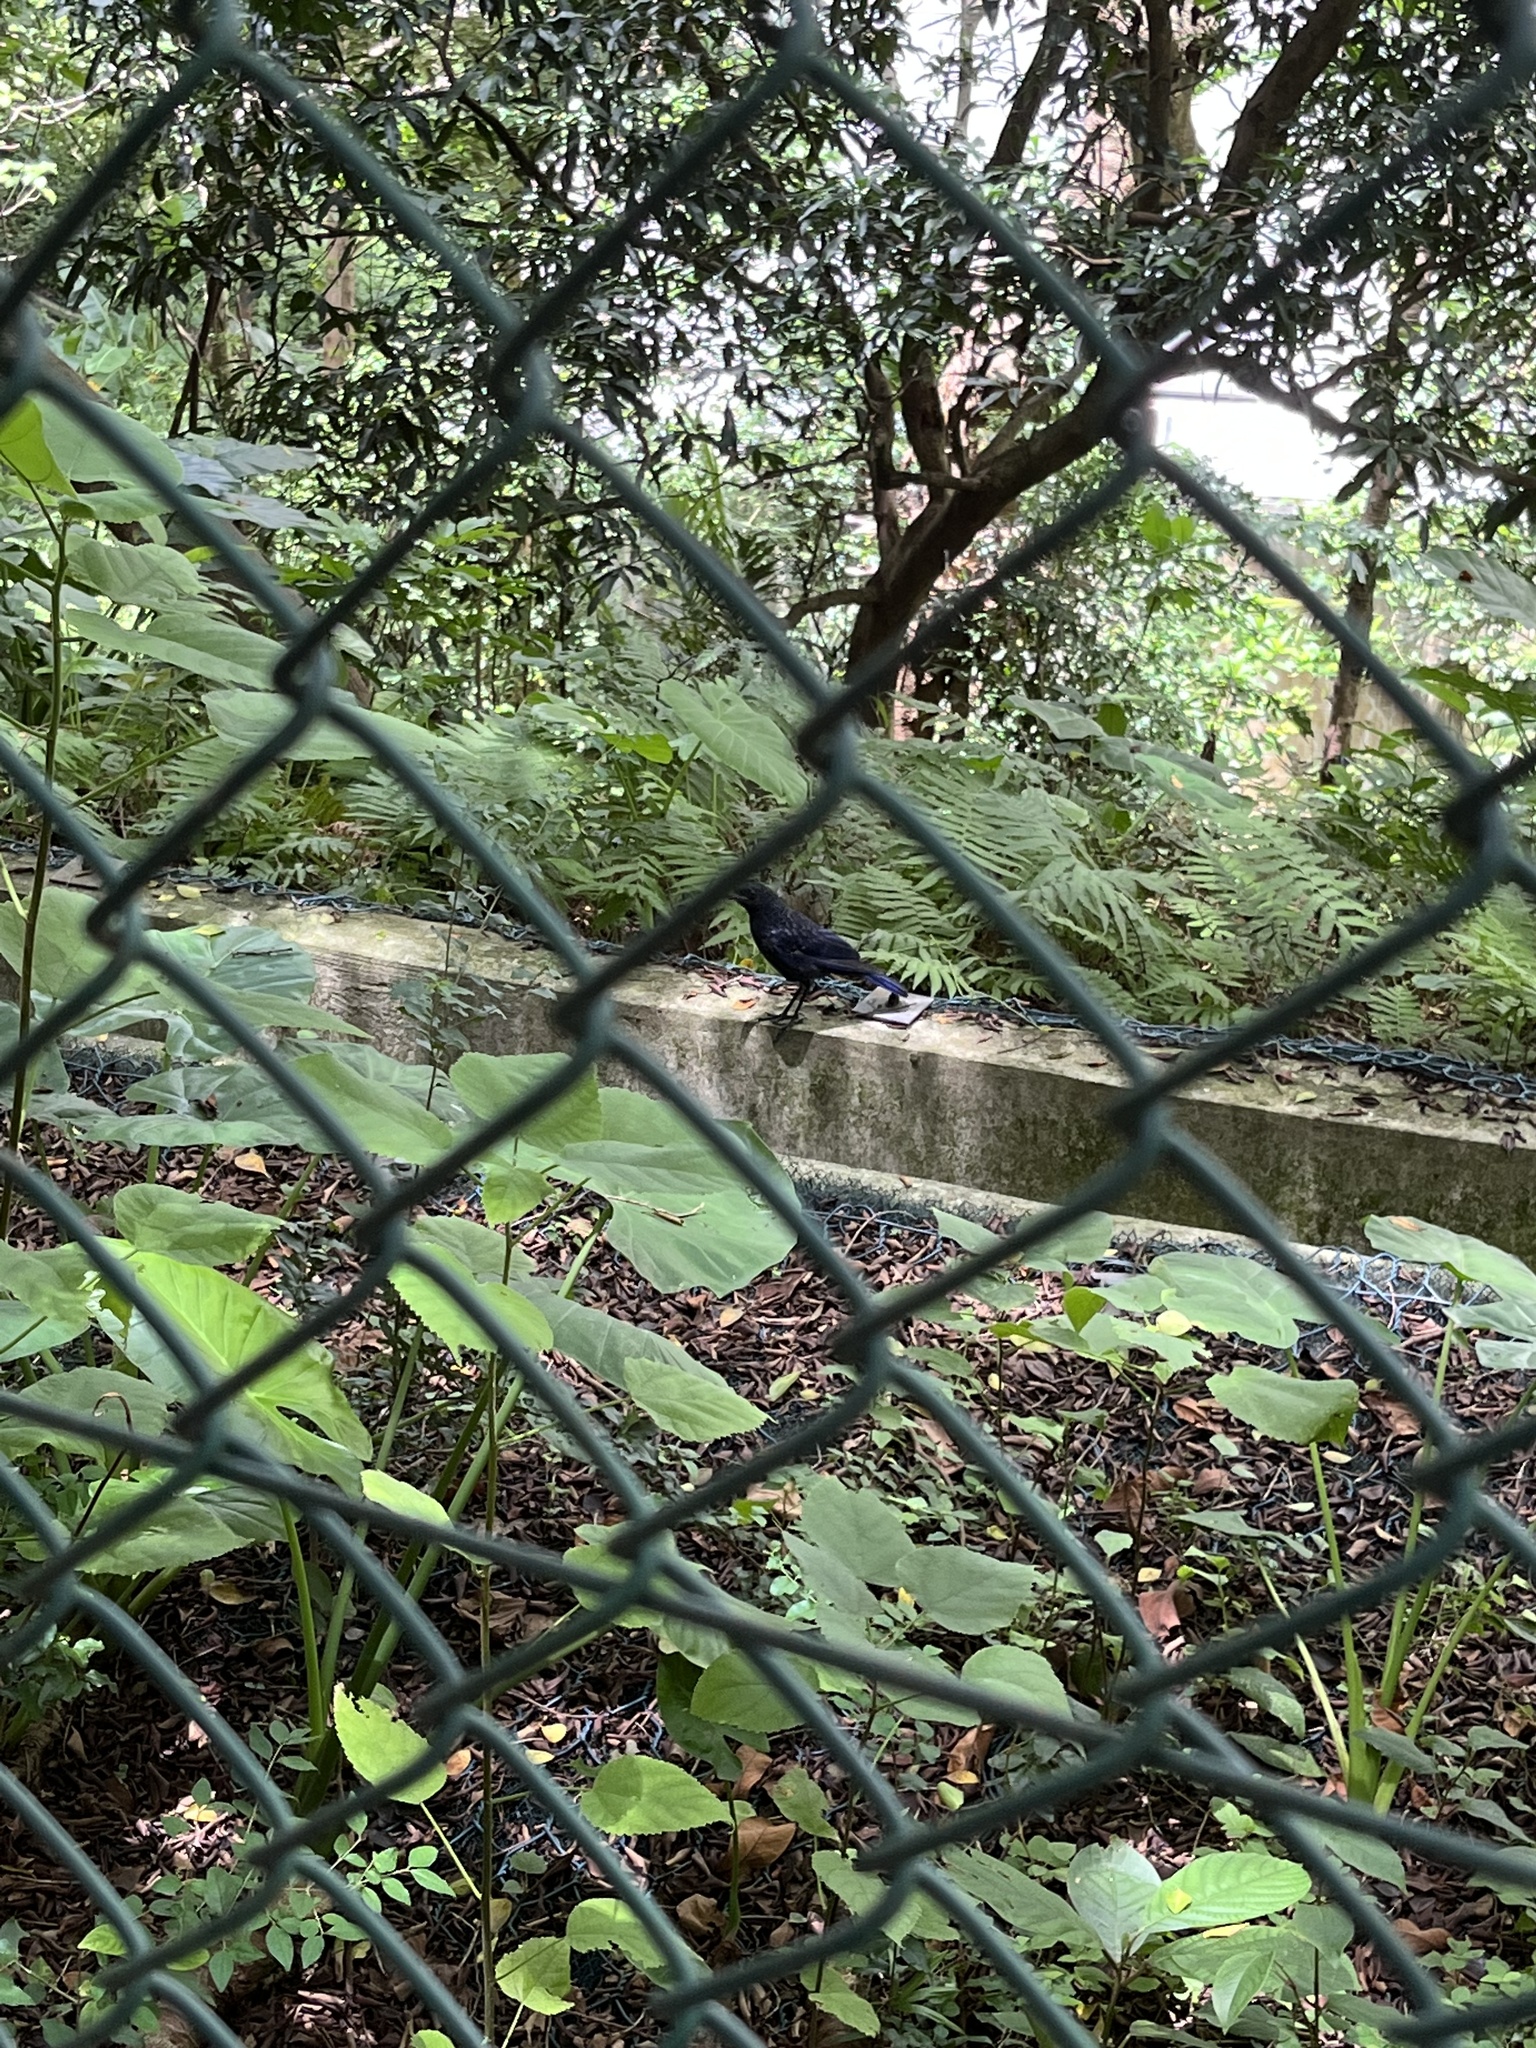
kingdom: Animalia
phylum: Chordata
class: Aves
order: Passeriformes
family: Muscicapidae
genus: Myophonus
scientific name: Myophonus caeruleus
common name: Blue whistling-thrush
